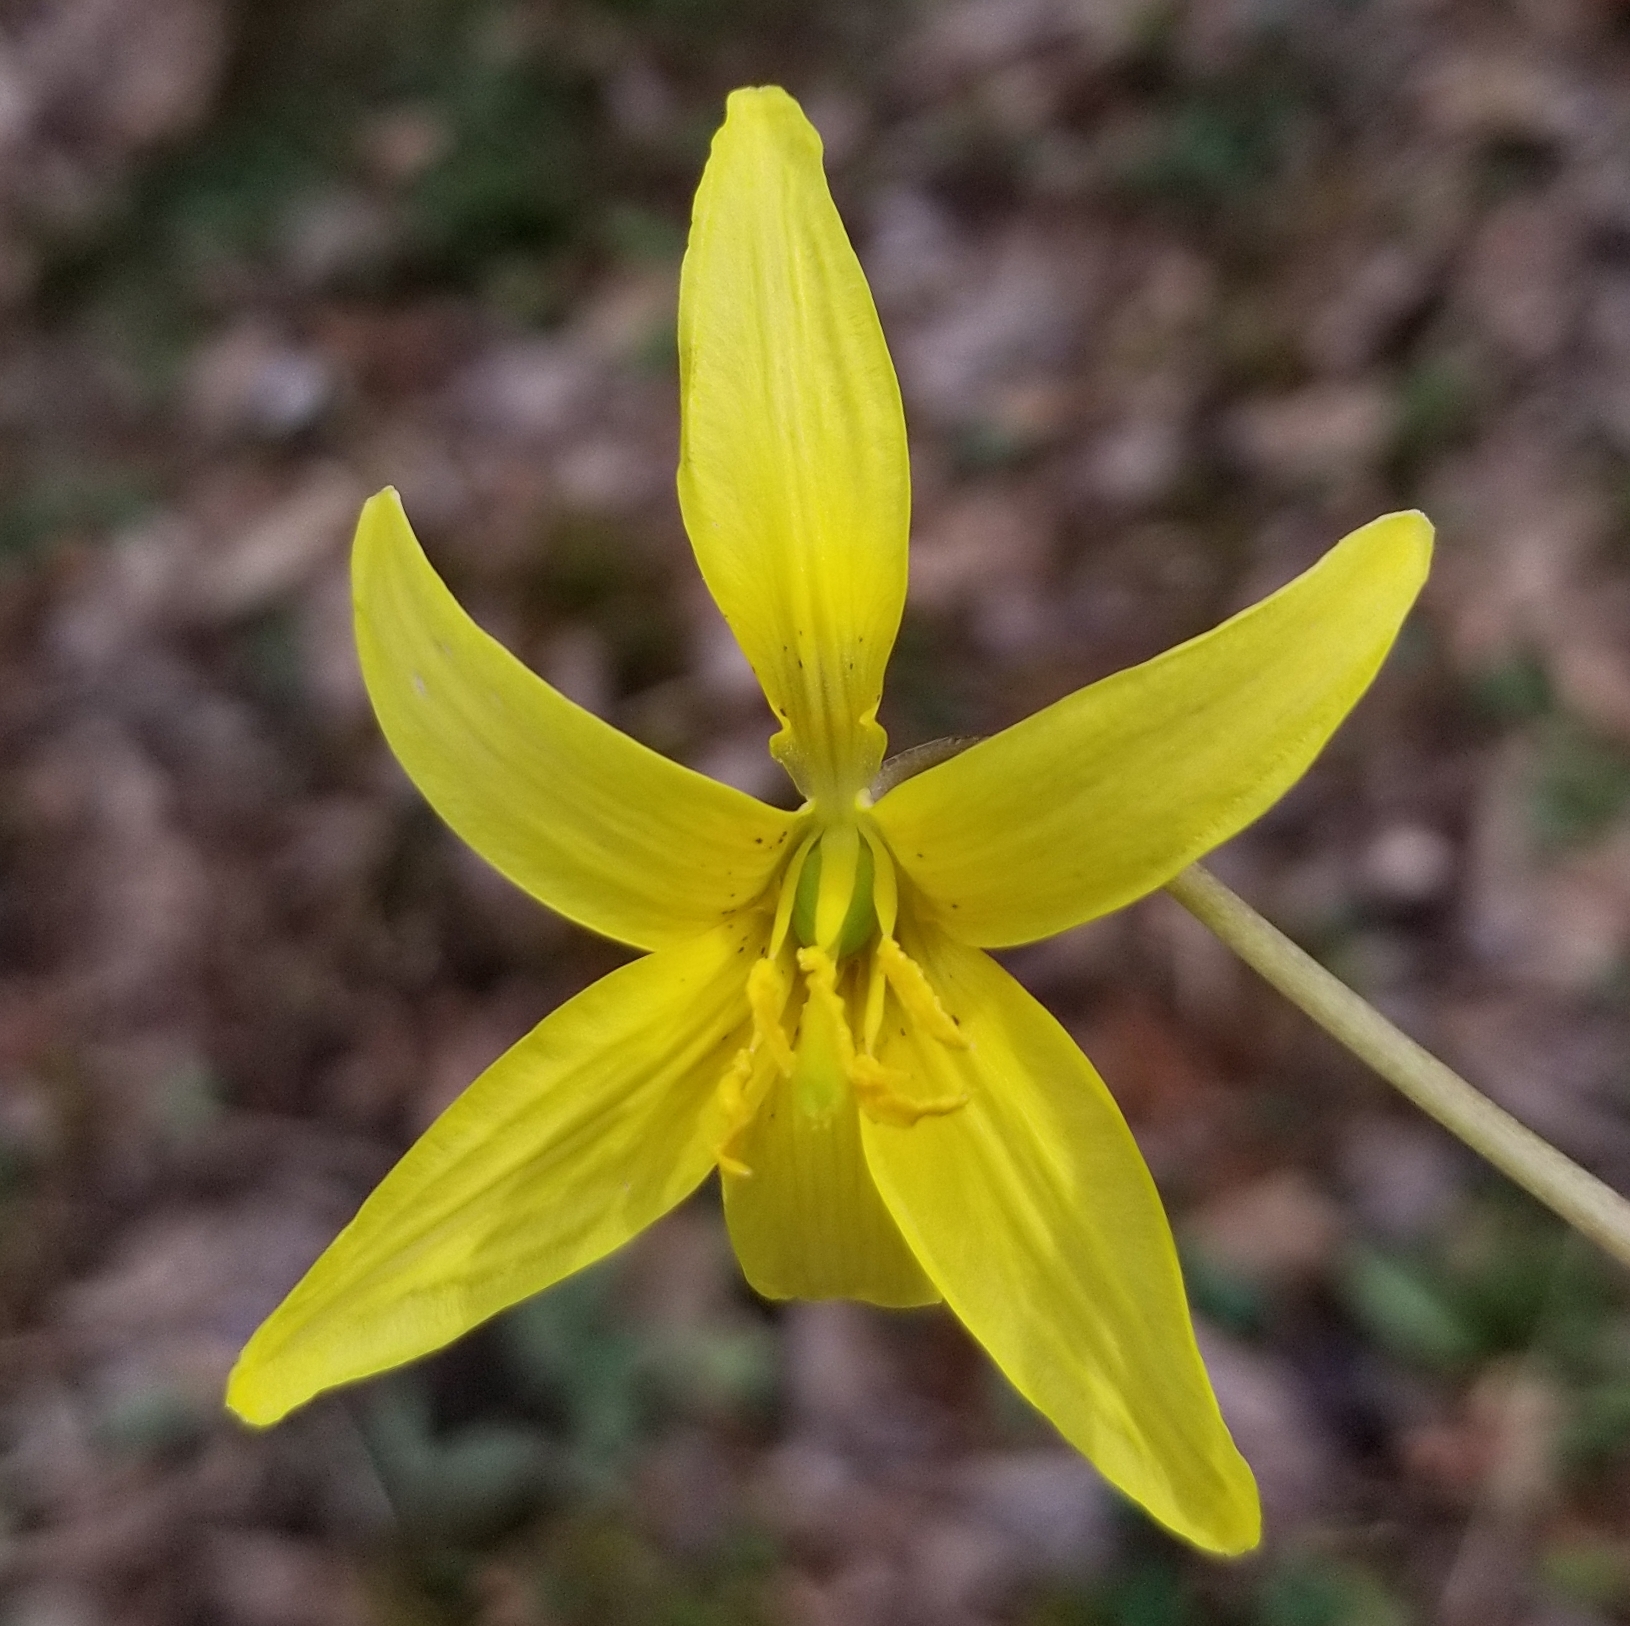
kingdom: Plantae
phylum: Tracheophyta
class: Liliopsida
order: Liliales
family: Liliaceae
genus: Erythronium
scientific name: Erythronium americanum
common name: Yellow adder's-tongue
